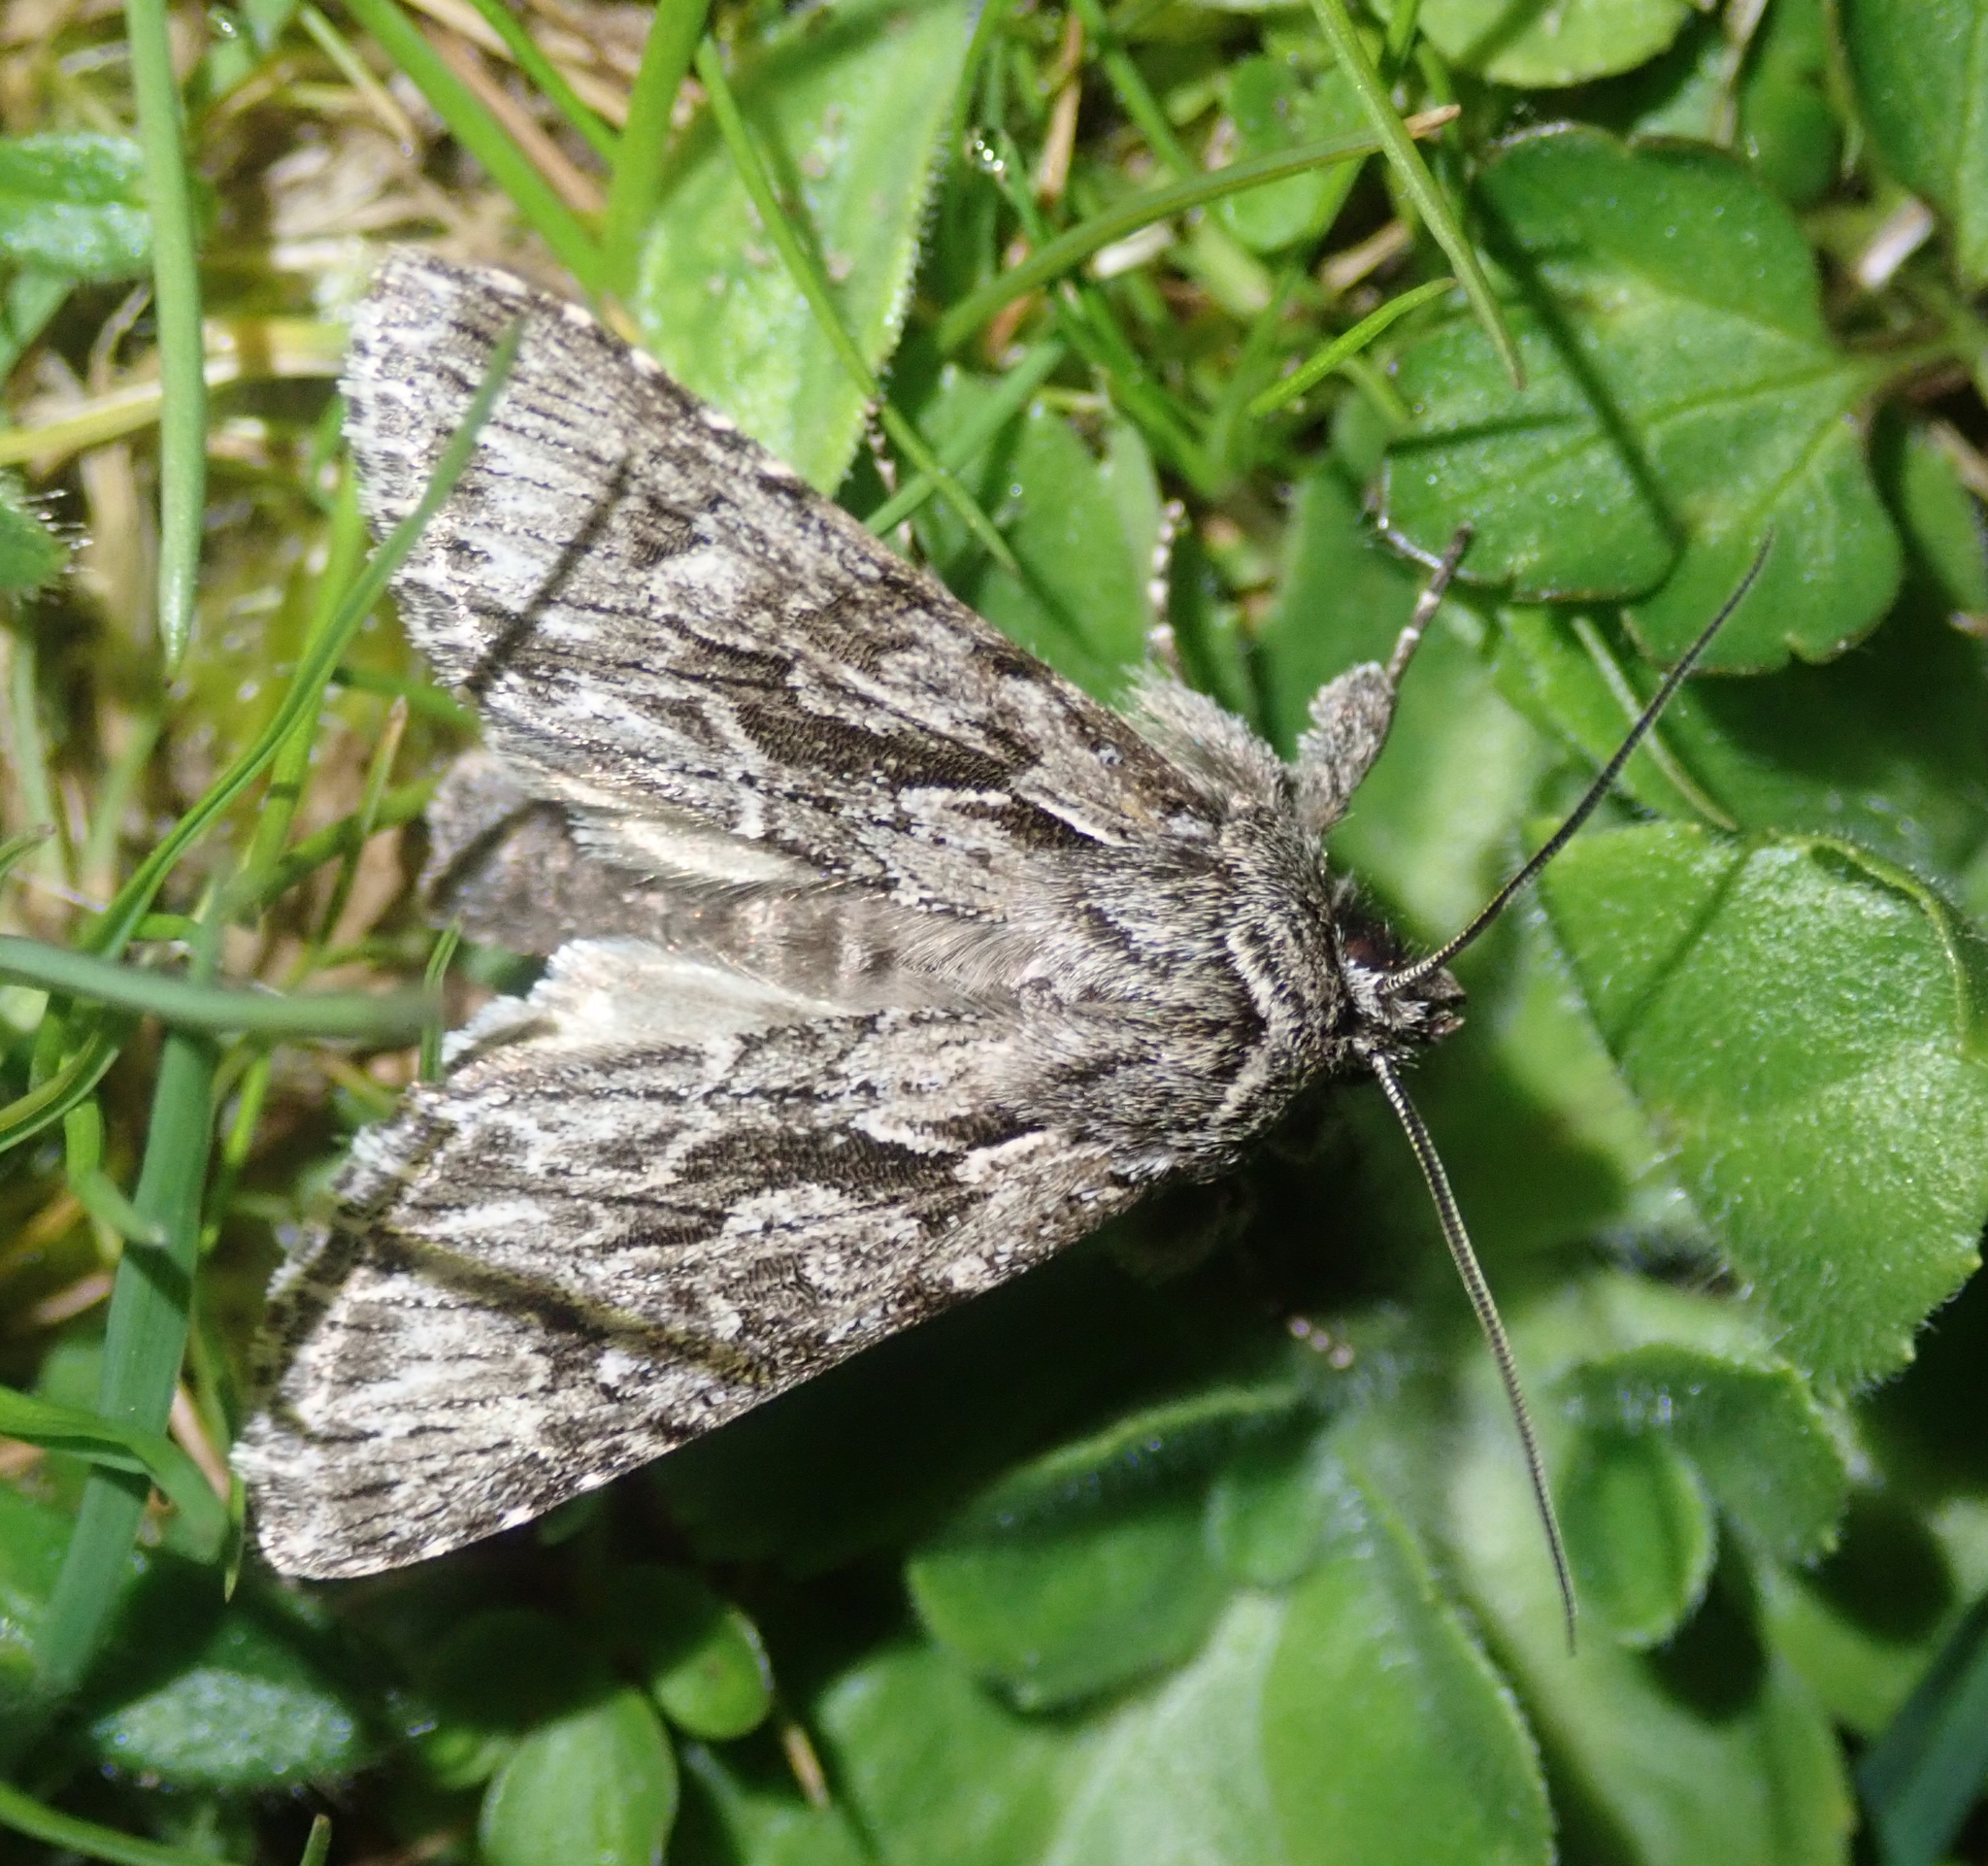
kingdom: Animalia
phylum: Arthropoda
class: Insecta
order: Lepidoptera
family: Noctuidae
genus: Xylocampa
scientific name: Xylocampa areola
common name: Early grey
